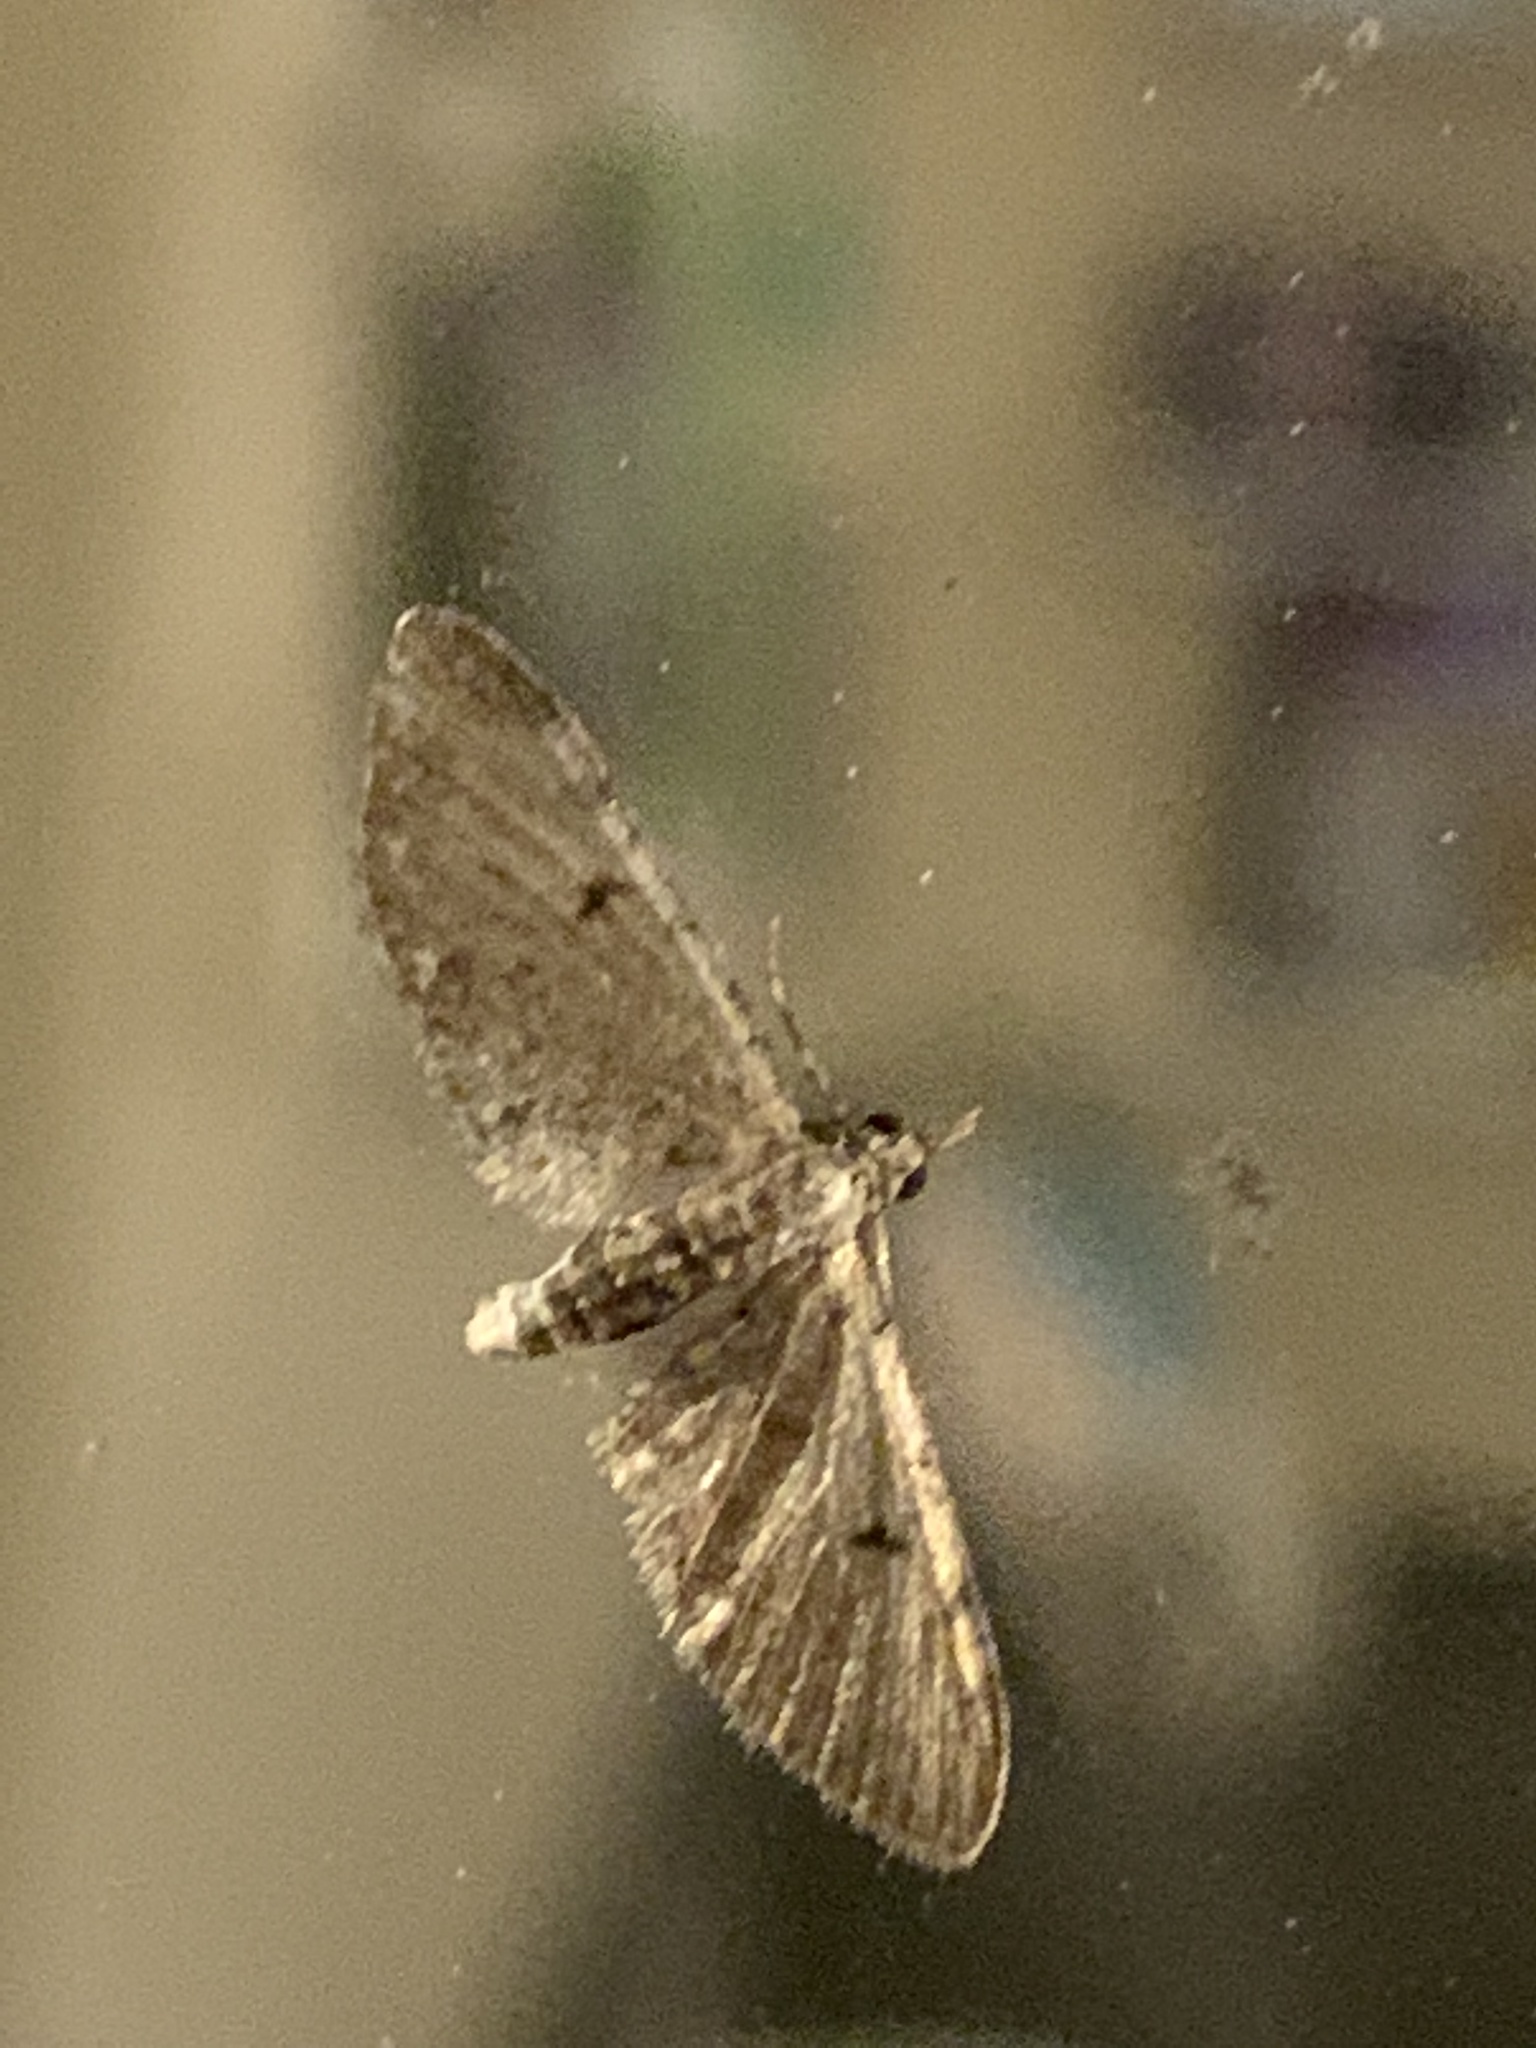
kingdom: Animalia
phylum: Arthropoda
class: Insecta
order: Lepidoptera
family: Geometridae
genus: Eupithecia
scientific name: Eupithecia miserulata
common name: Common eupithecia
